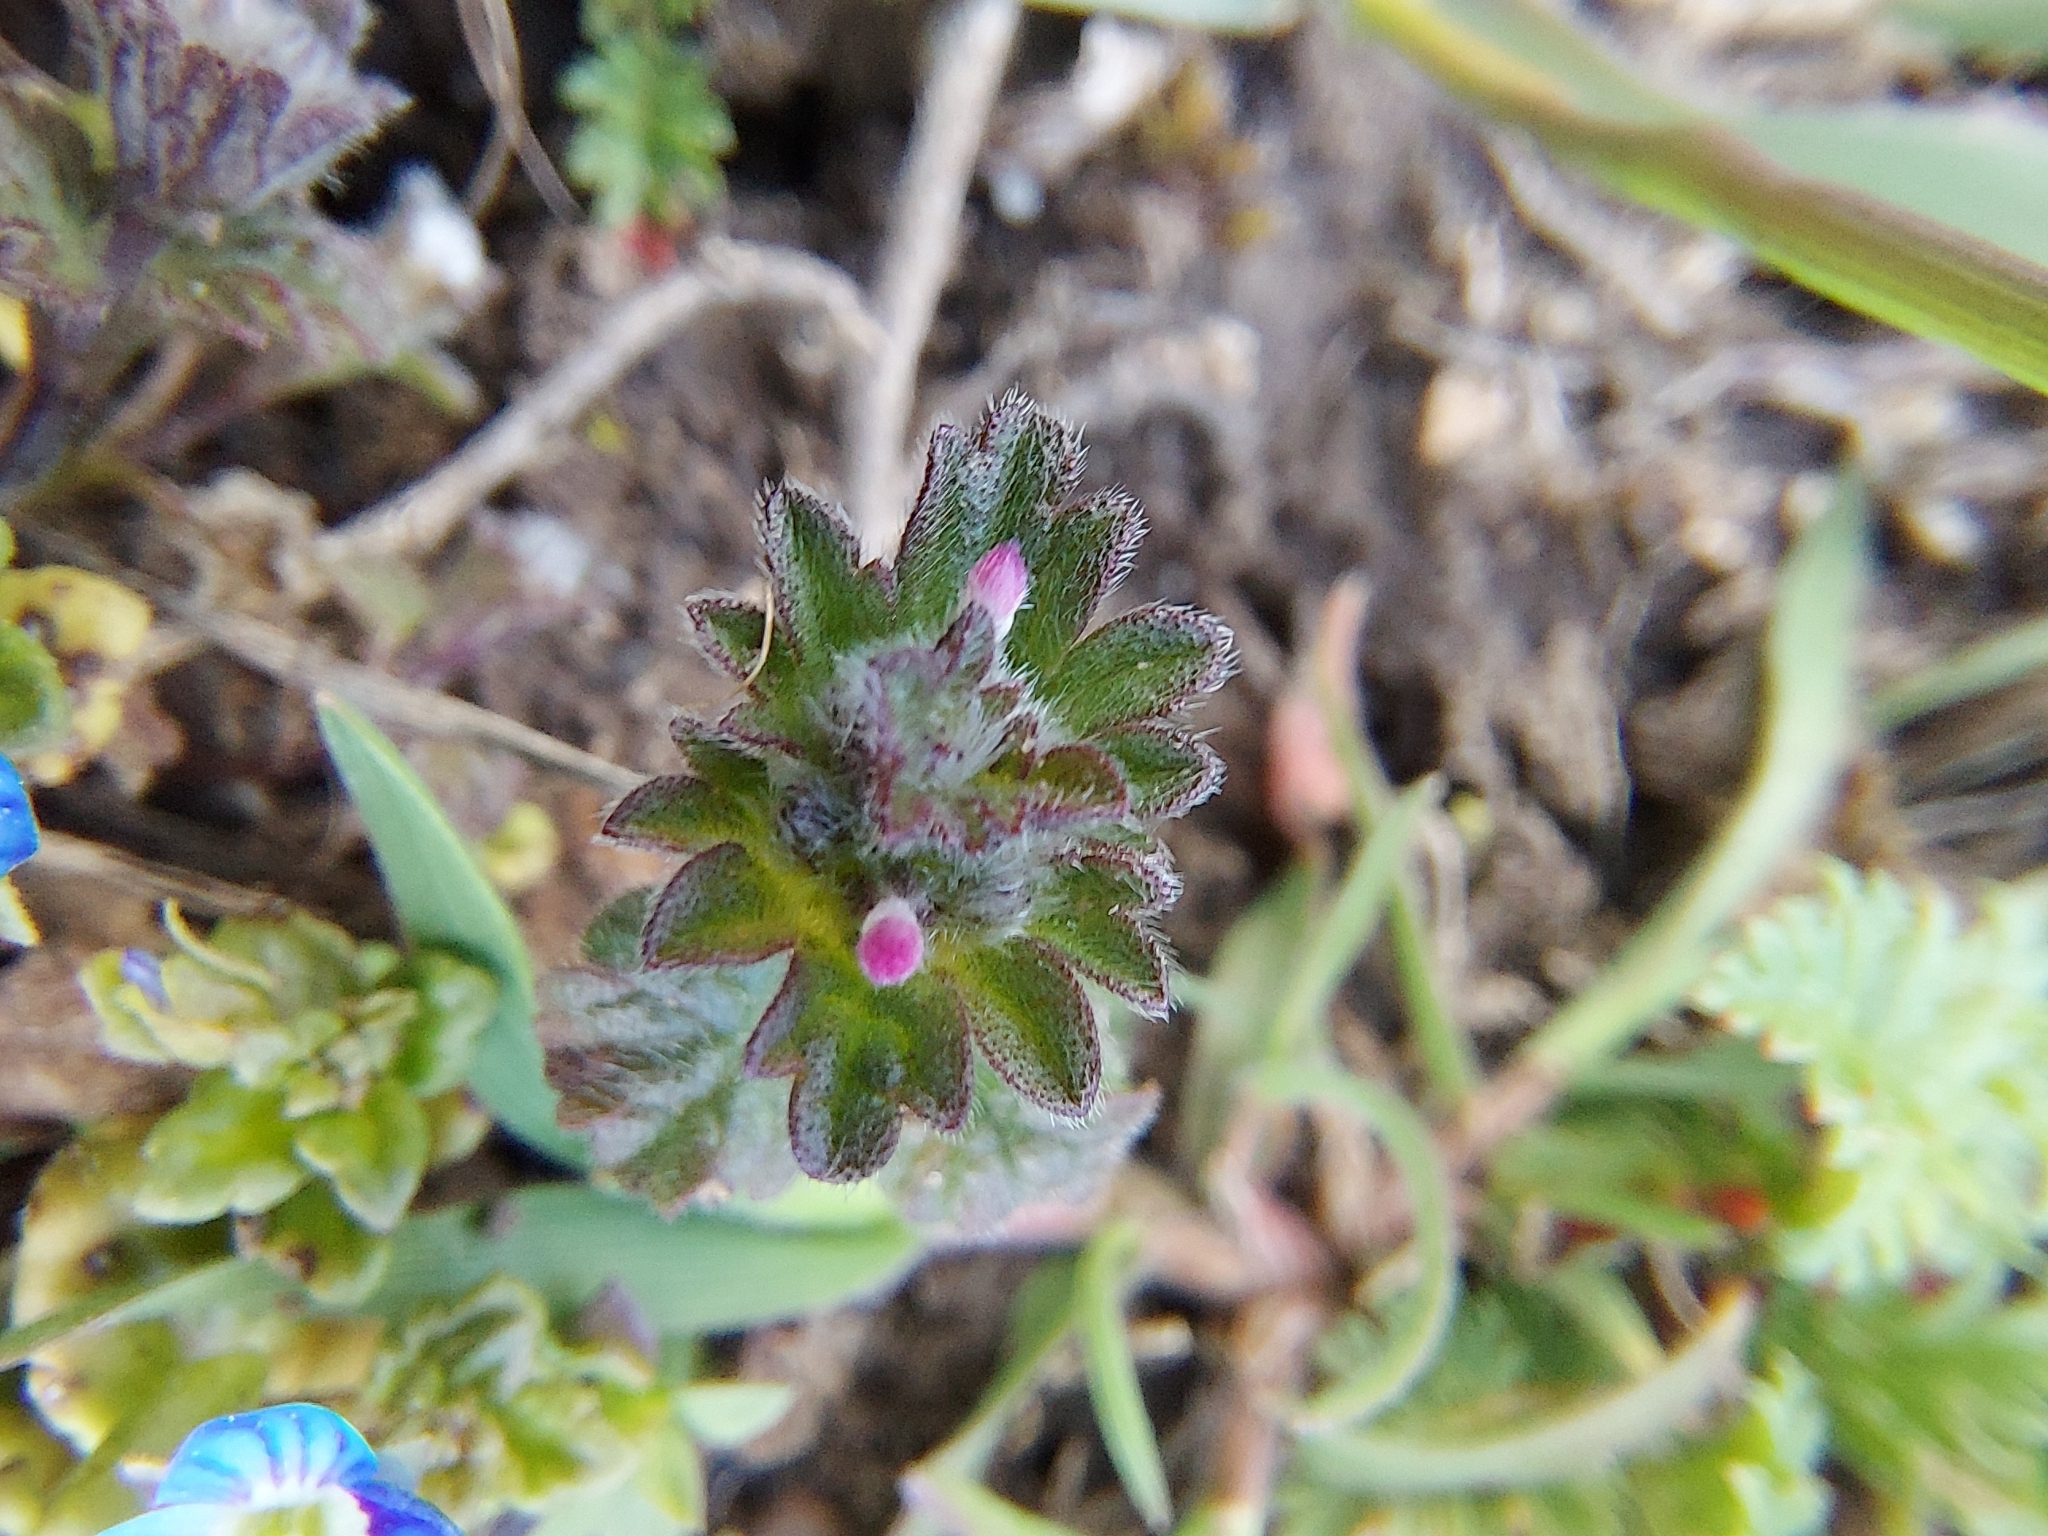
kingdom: Plantae
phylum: Tracheophyta
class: Magnoliopsida
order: Lamiales
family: Lamiaceae
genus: Lamium
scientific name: Lamium amplexicaule
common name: Henbit dead-nettle
